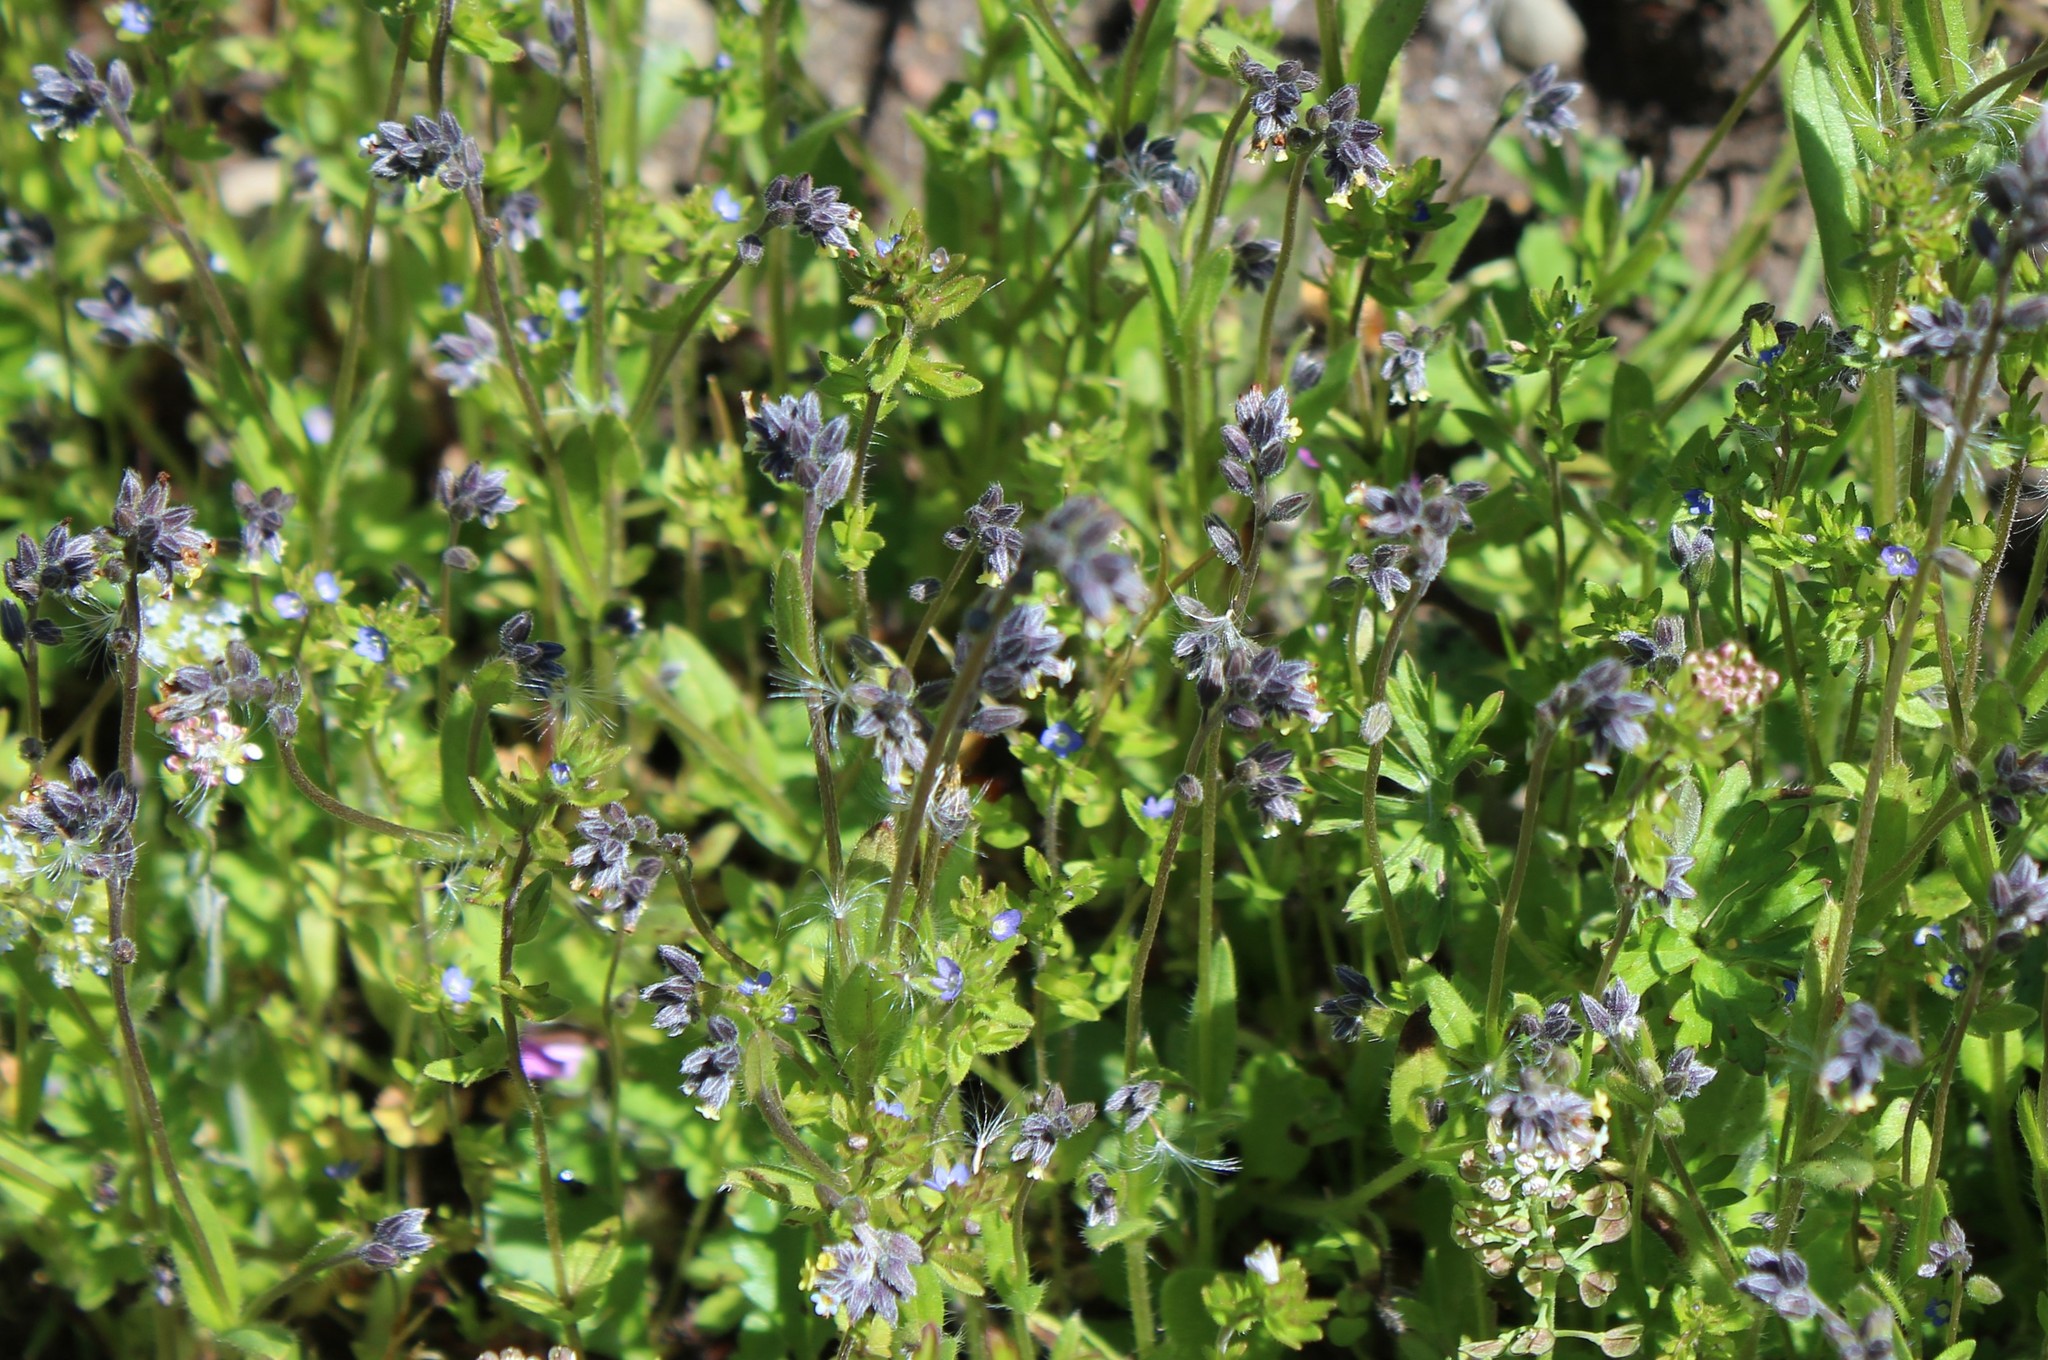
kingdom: Plantae
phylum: Tracheophyta
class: Magnoliopsida
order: Boraginales
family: Boraginaceae
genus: Myosotis
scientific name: Myosotis discolor
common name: Changing forget-me-not
